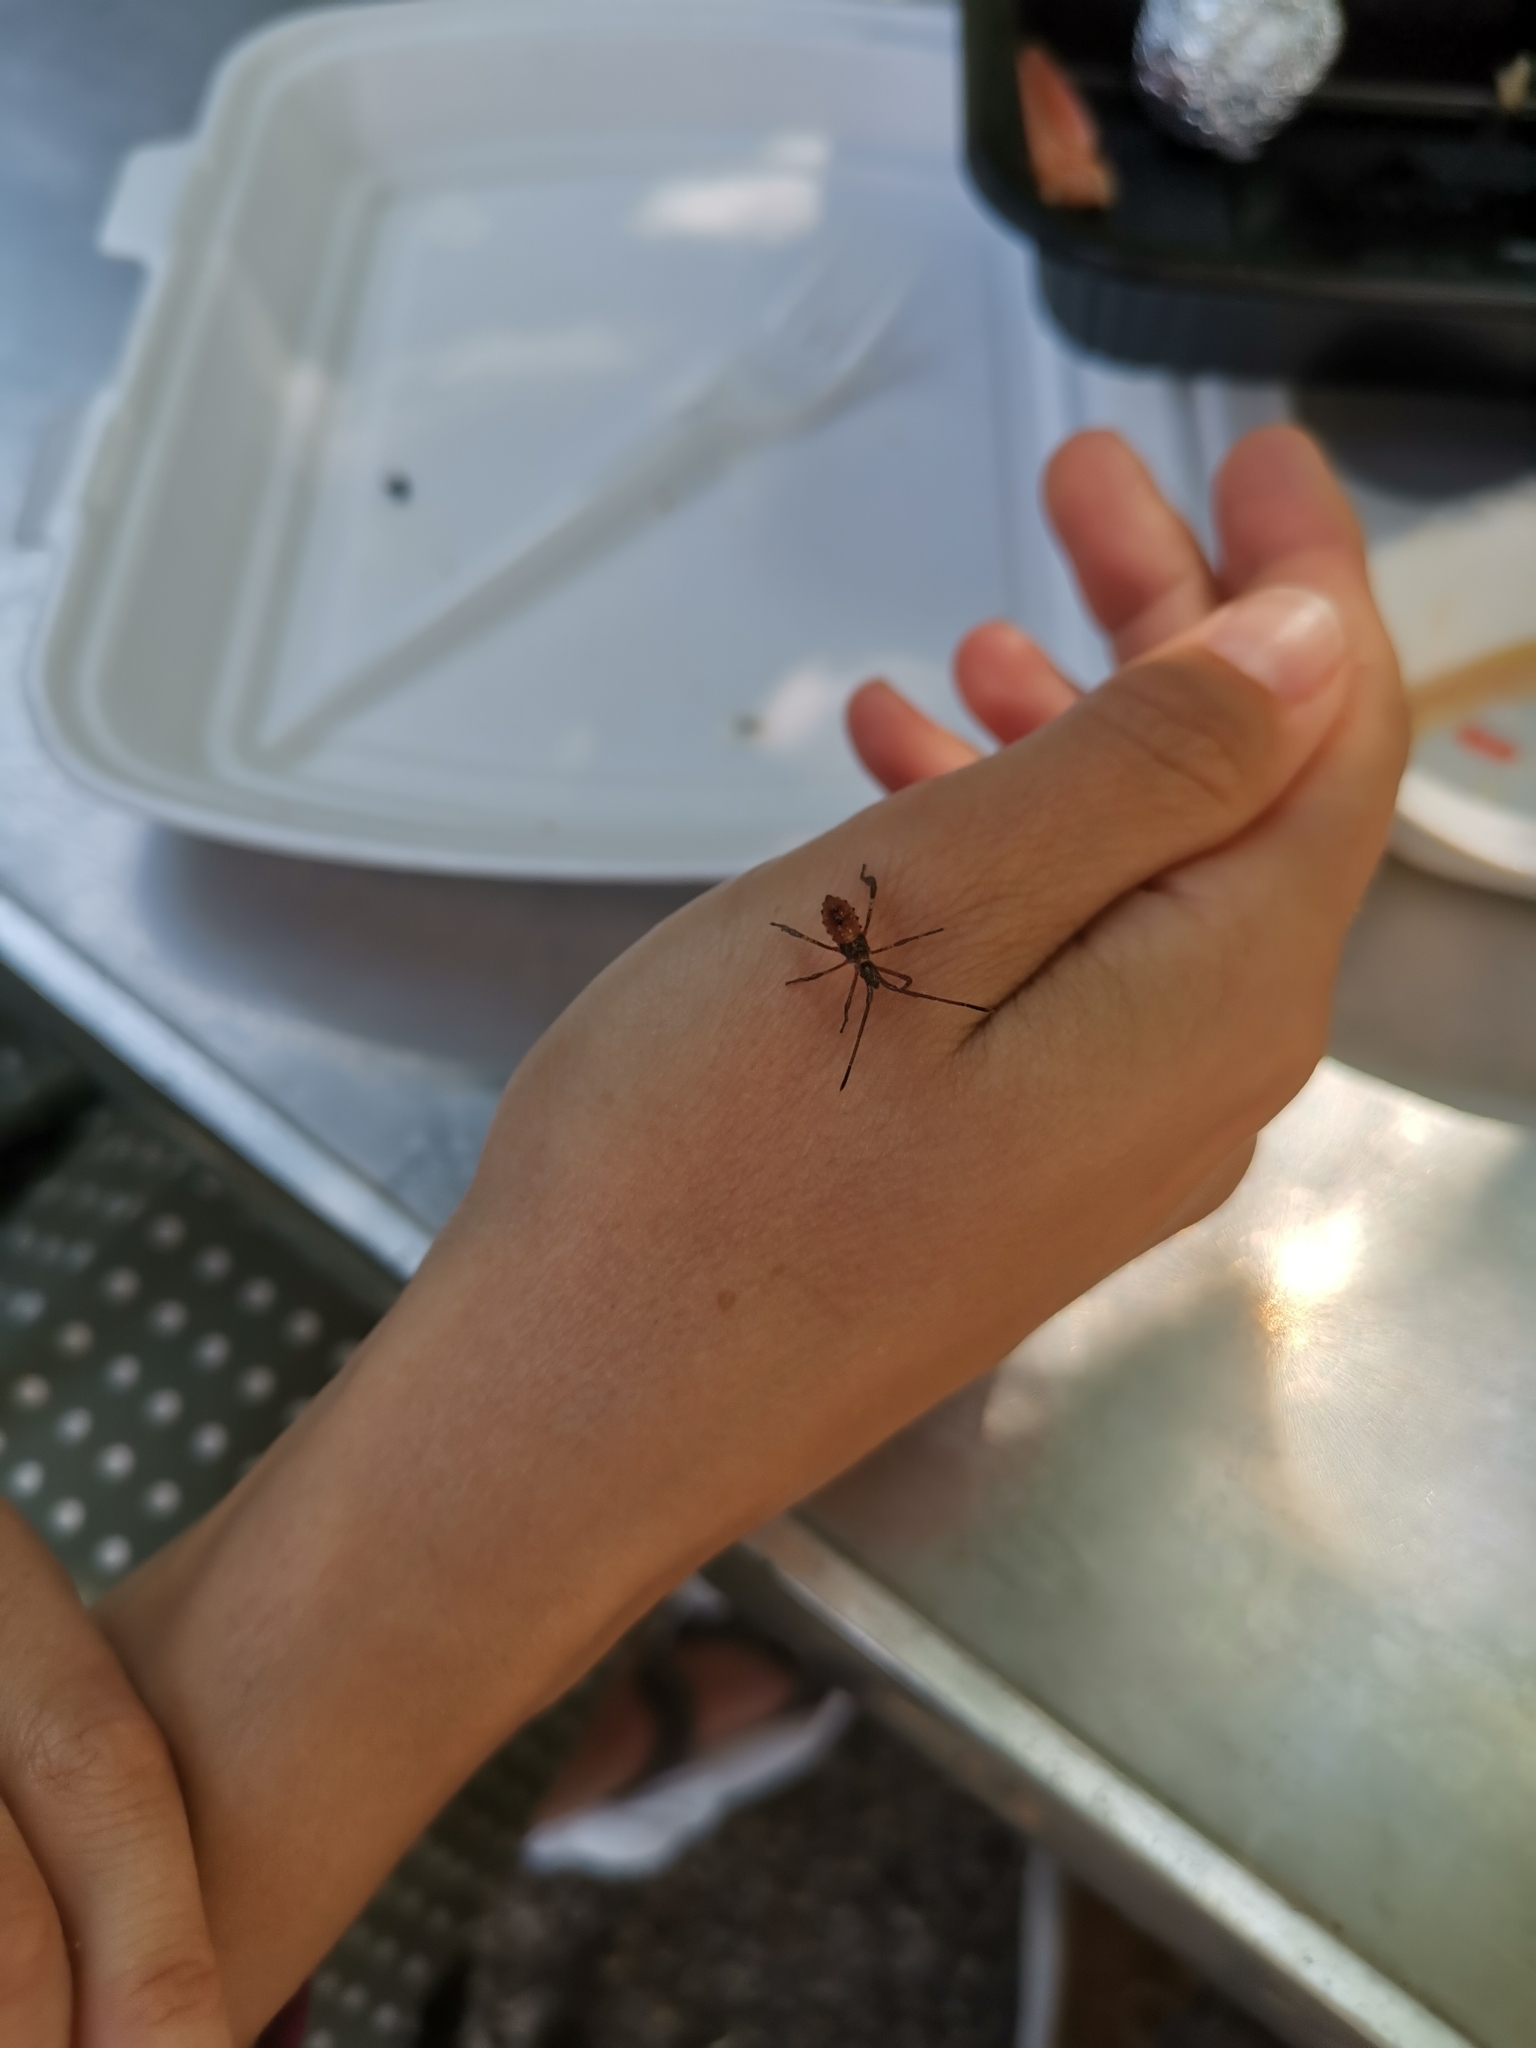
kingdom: Animalia
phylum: Arthropoda
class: Insecta
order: Hemiptera
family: Coreidae
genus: Leptoglossus
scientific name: Leptoglossus occidentalis
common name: Western conifer-seed bug
